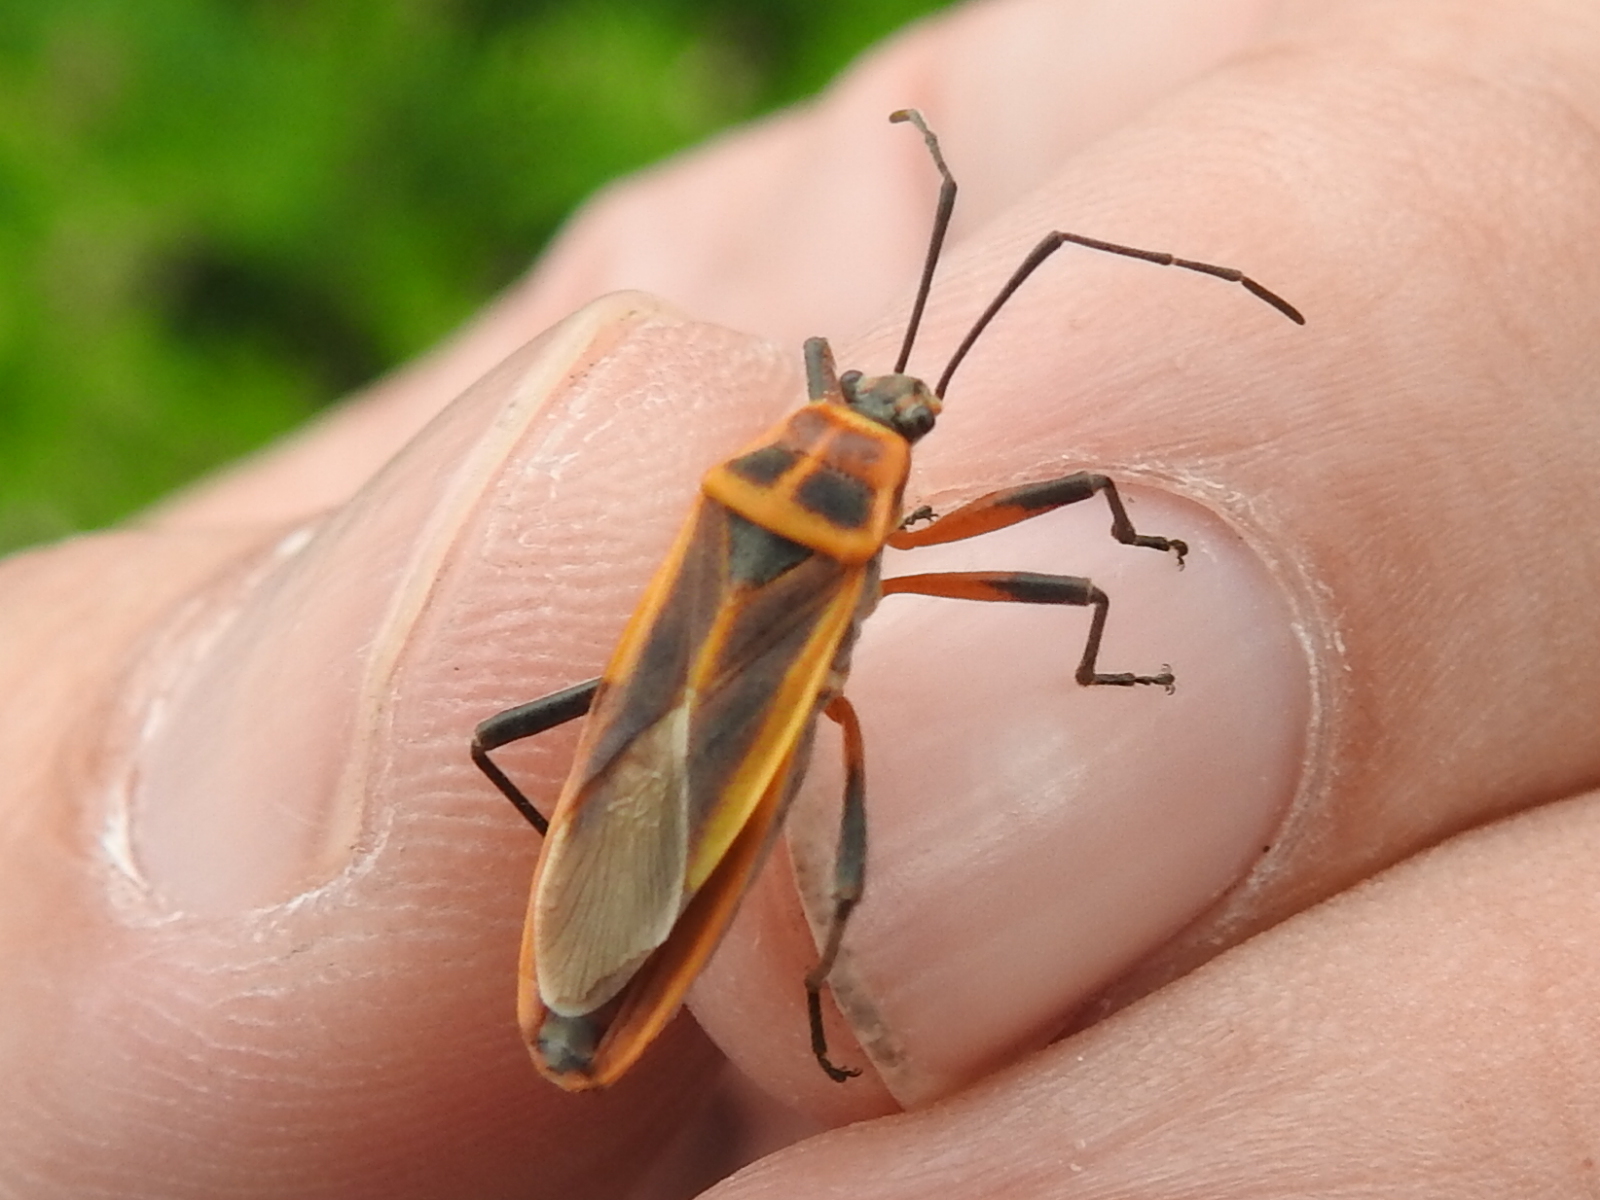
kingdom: Animalia
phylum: Arthropoda
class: Insecta
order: Hemiptera
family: Largidae
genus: Stenomacra
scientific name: Stenomacra marginella
